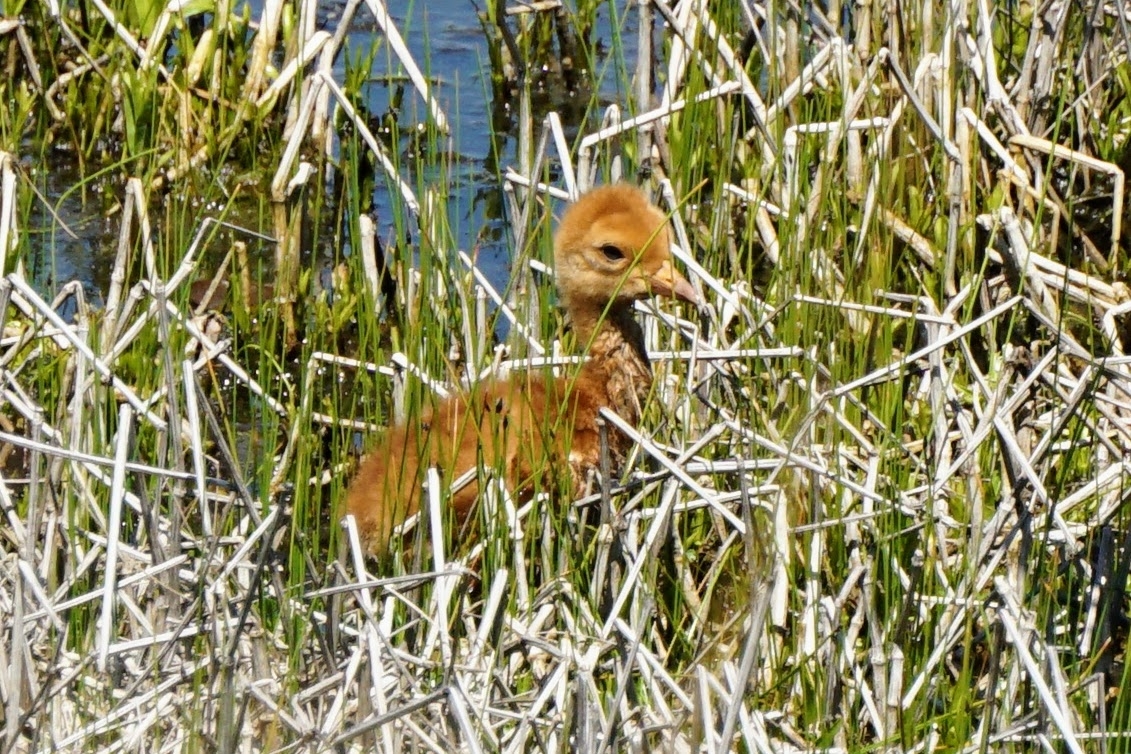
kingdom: Animalia
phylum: Chordata
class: Aves
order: Gruiformes
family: Gruidae
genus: Grus
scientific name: Grus canadensis
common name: Sandhill crane
